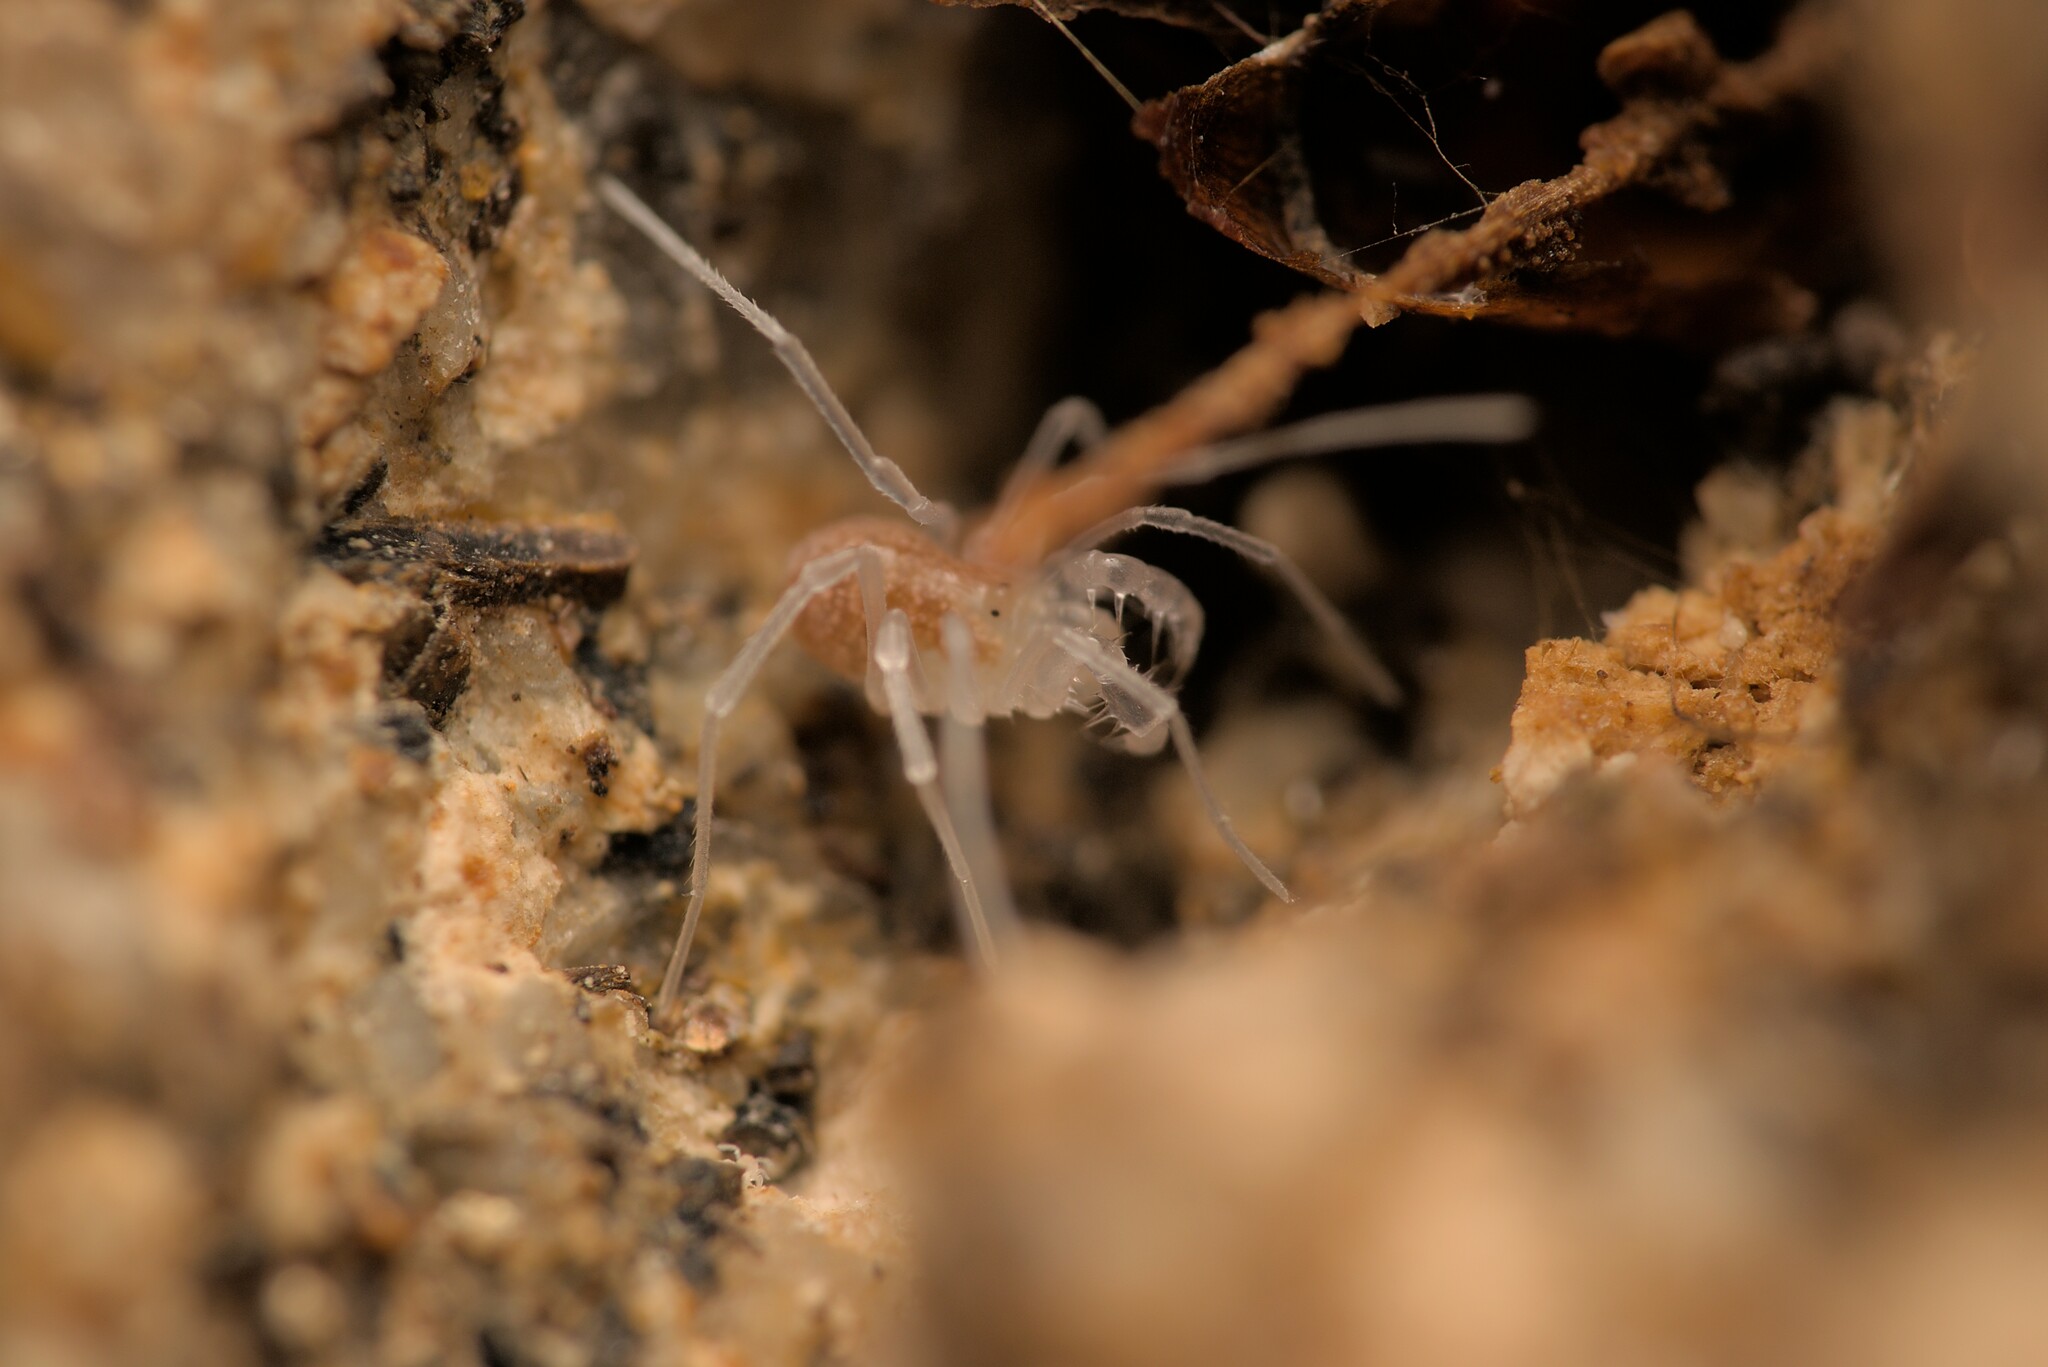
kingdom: Animalia
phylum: Arthropoda
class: Arachnida
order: Opiliones
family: Cladonychiidae
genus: Holoscotolemon
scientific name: Holoscotolemon querilhaci
